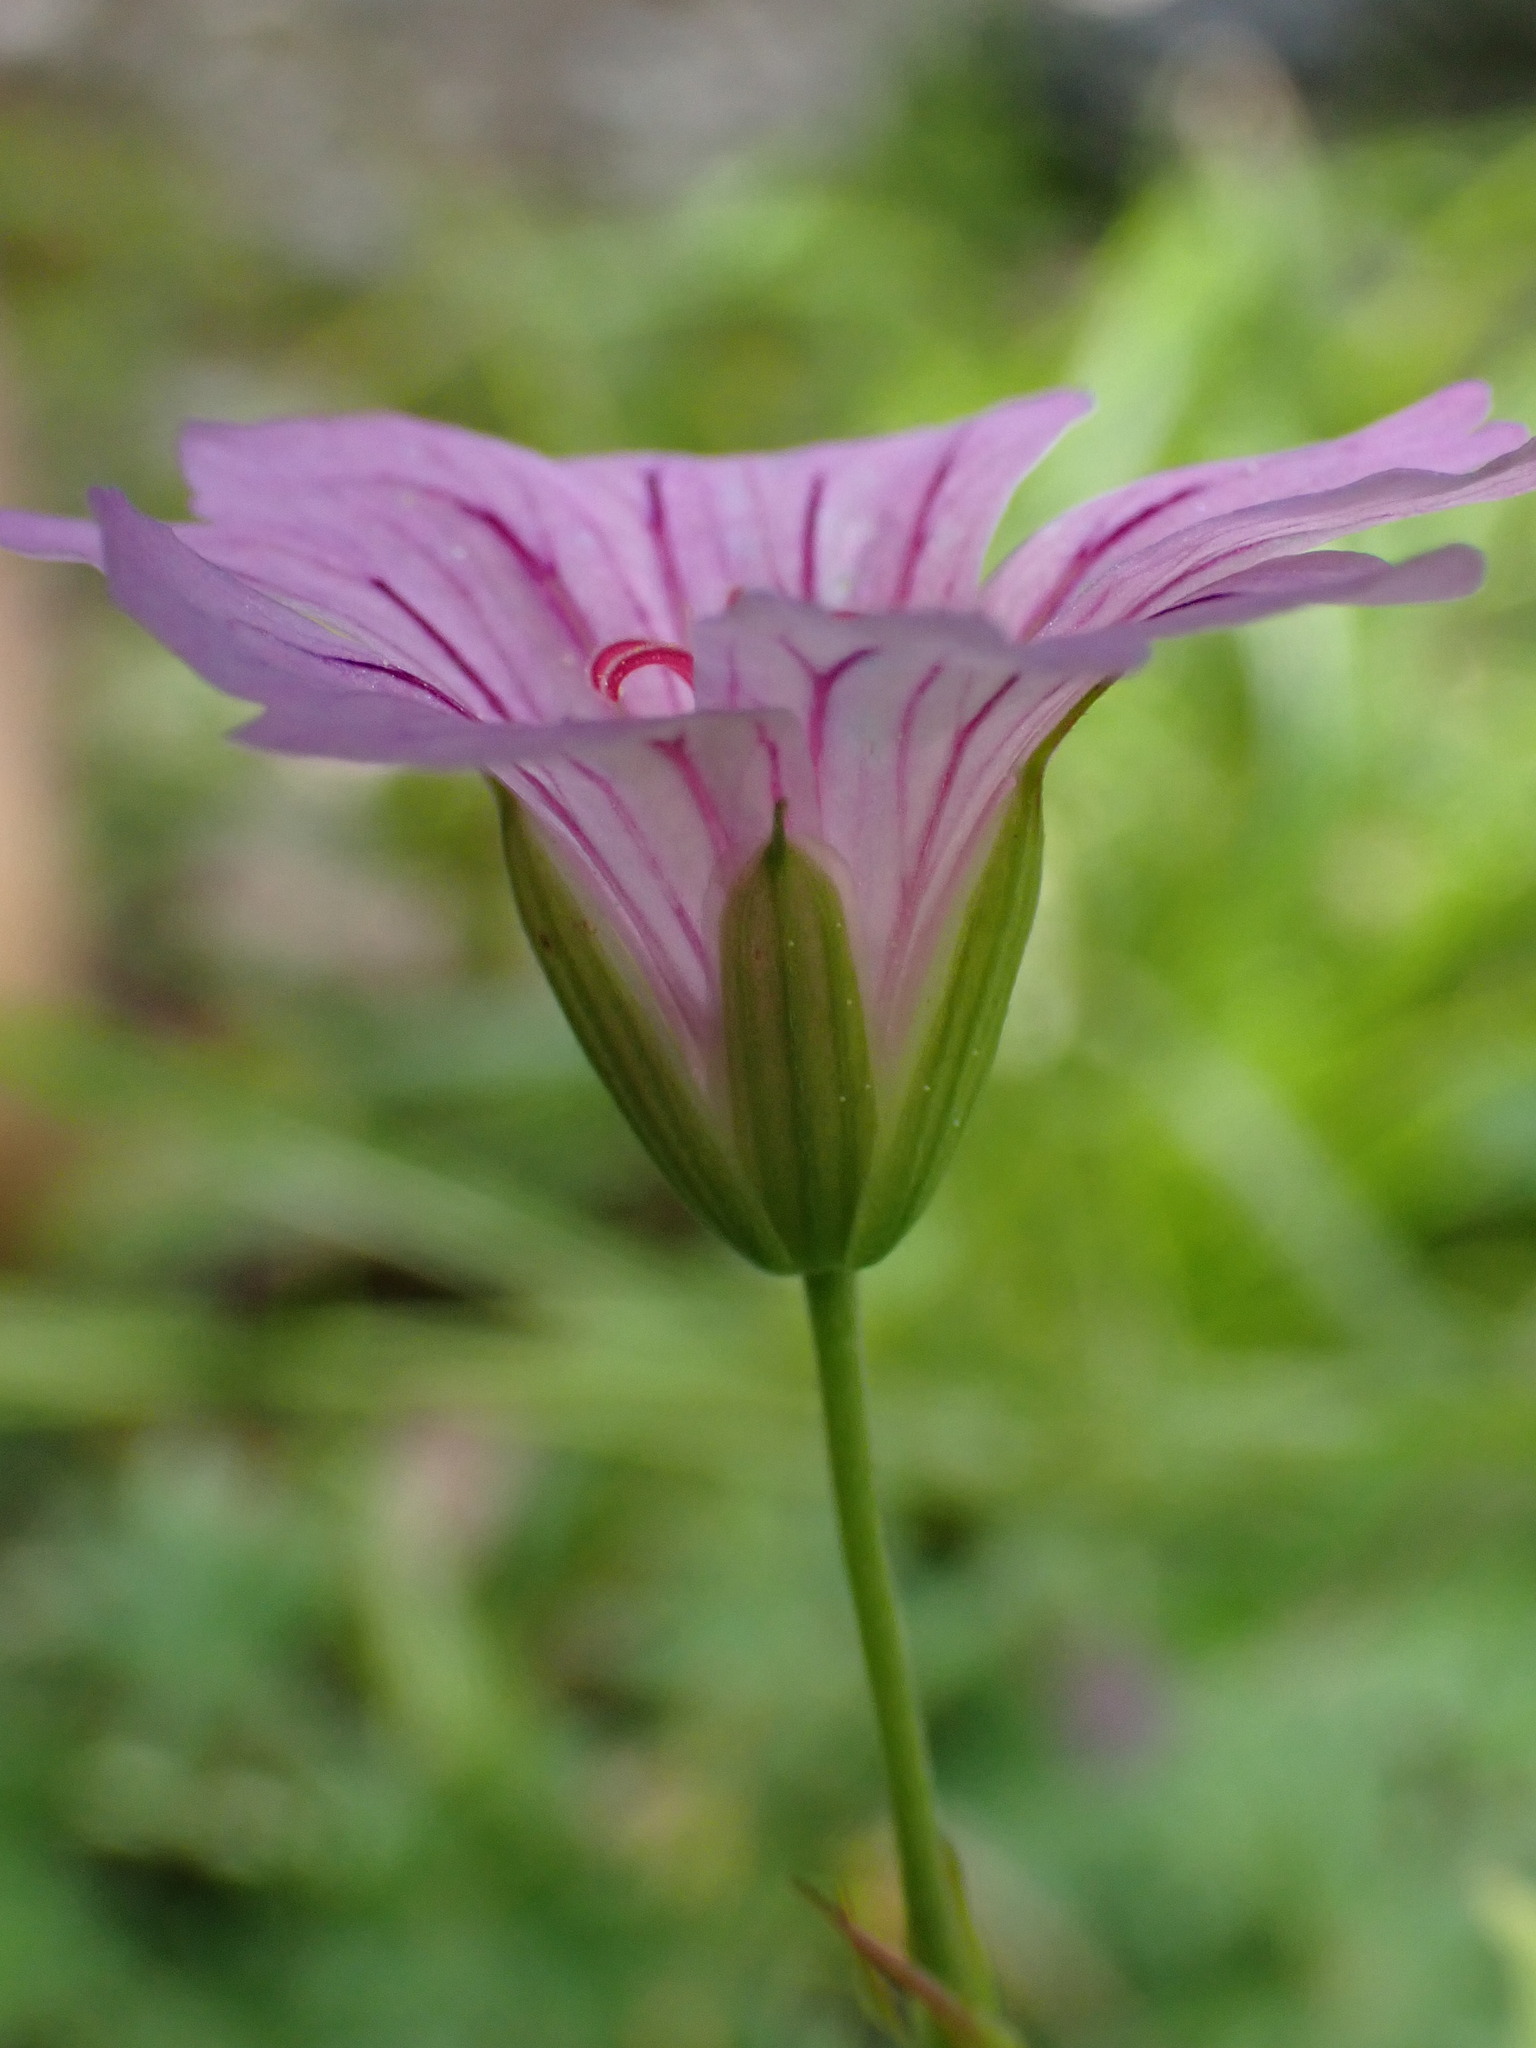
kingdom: Plantae
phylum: Tracheophyta
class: Magnoliopsida
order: Geraniales
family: Geraniaceae
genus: Geranium
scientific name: Geranium nodosum
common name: Knotted crane's-bill
